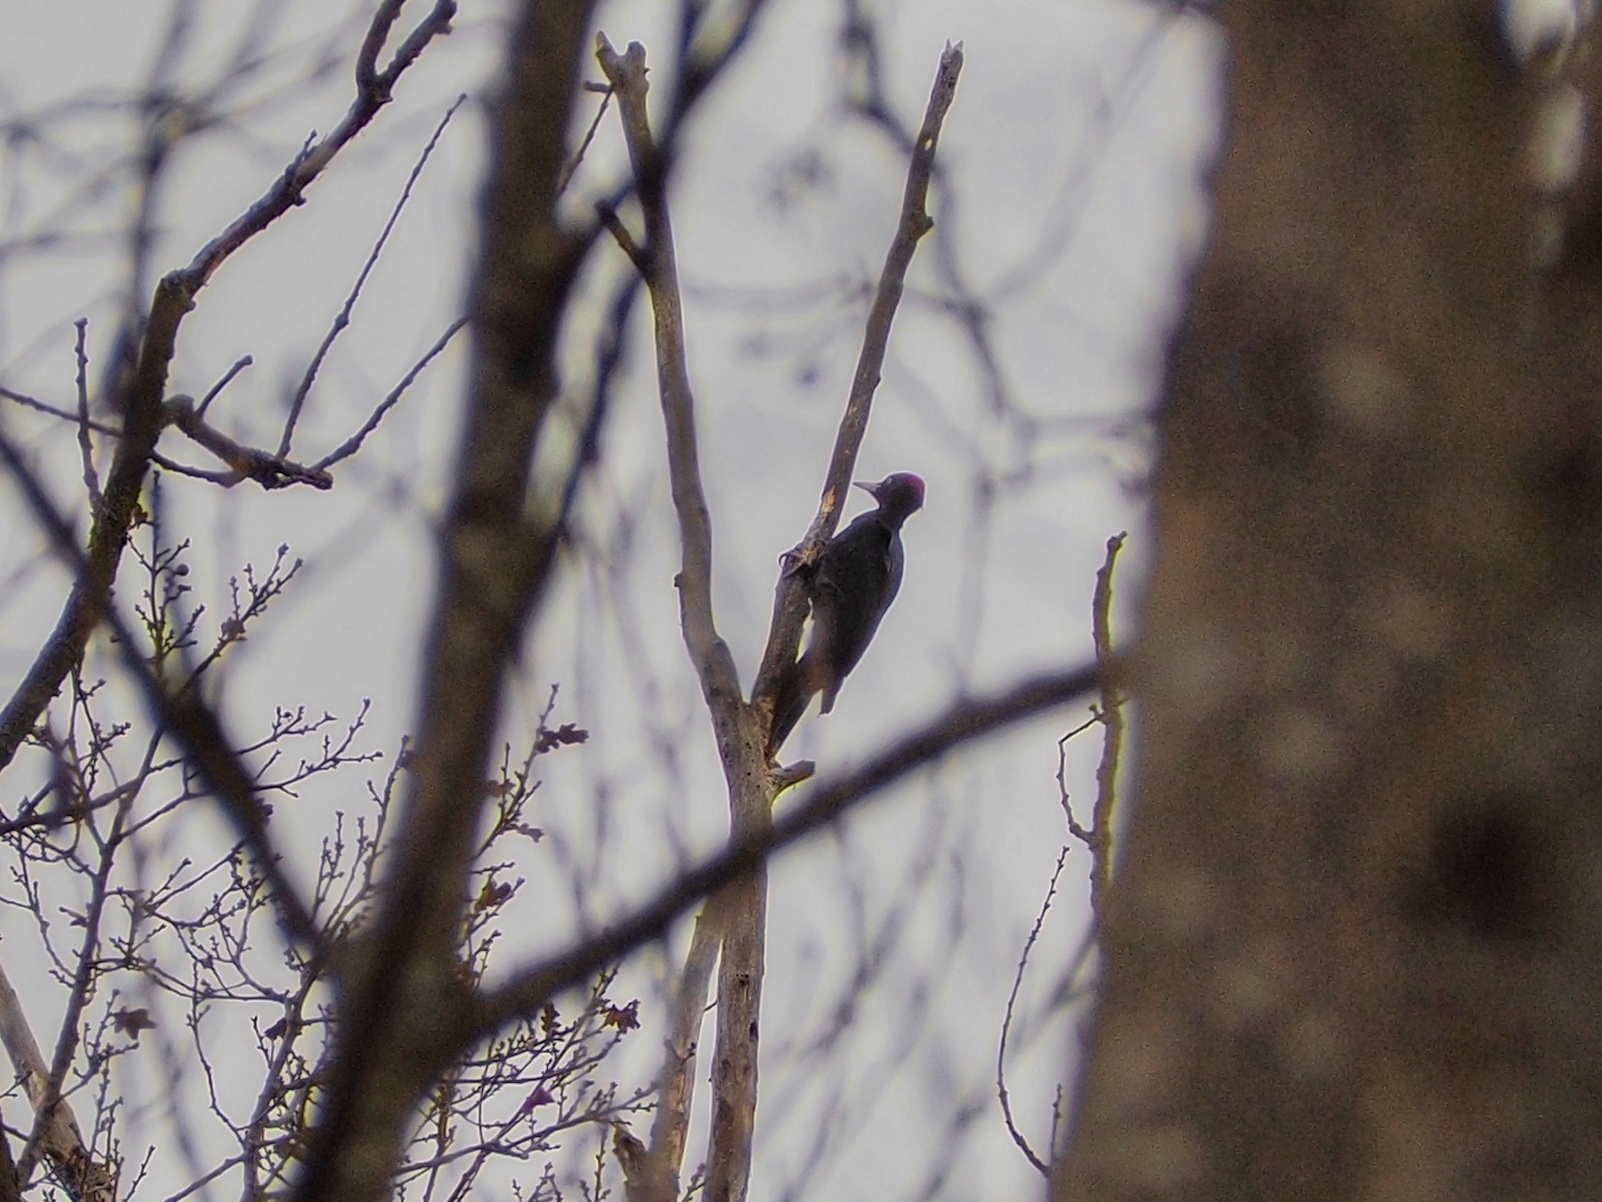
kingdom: Animalia
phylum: Chordata
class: Aves
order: Piciformes
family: Picidae
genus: Dryocopus
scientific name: Dryocopus martius
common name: Black woodpecker
